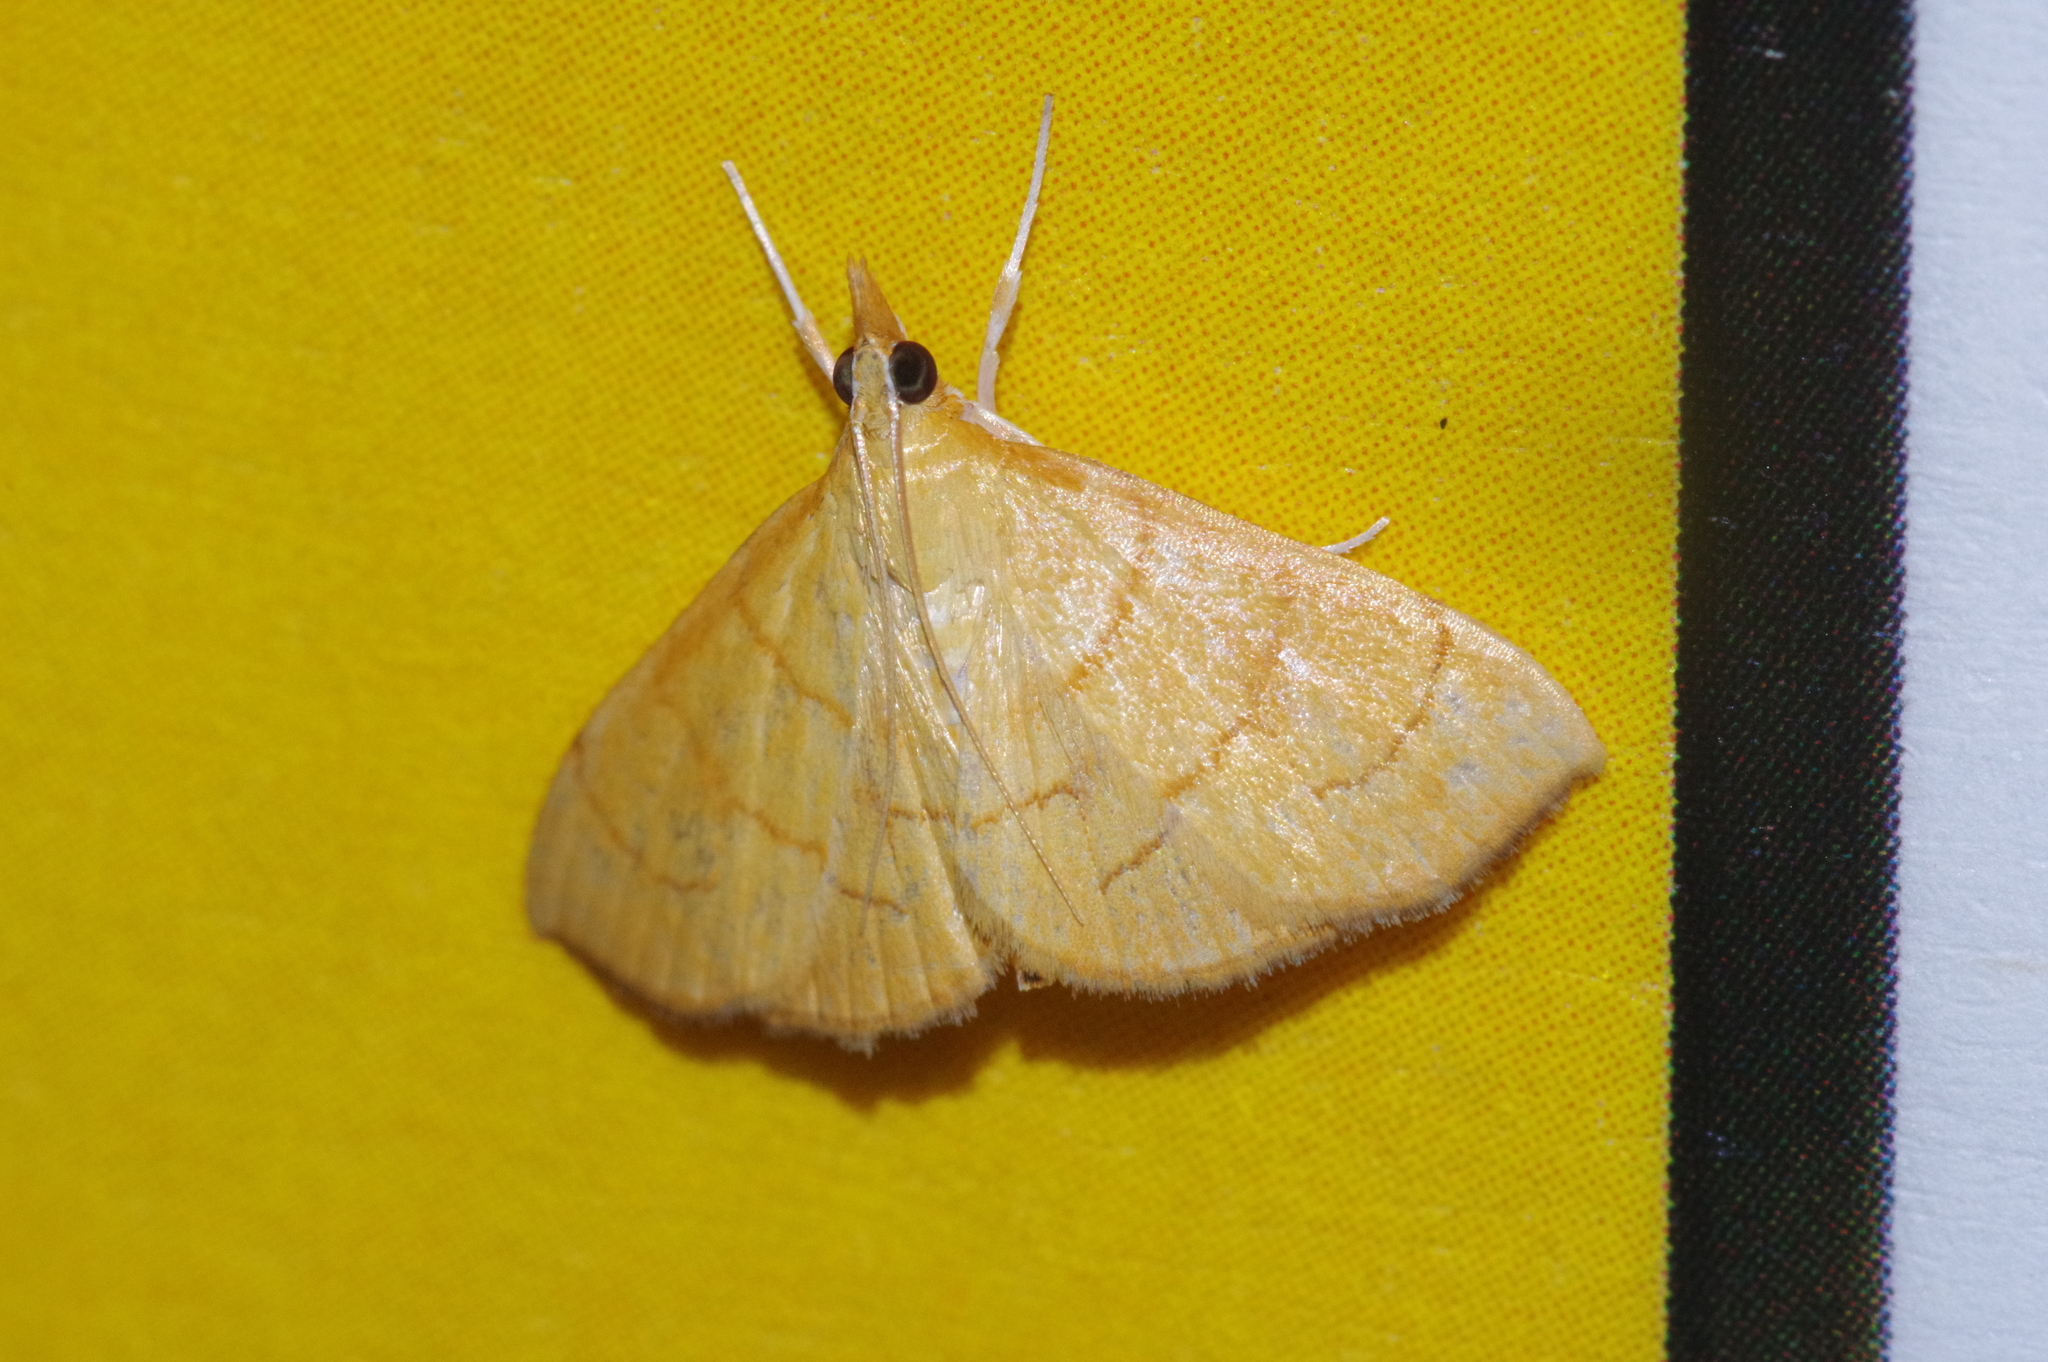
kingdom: Animalia
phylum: Arthropoda
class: Insecta
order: Lepidoptera
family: Crambidae
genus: Ecpyrrhorrhoe
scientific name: Ecpyrrhorrhoe minnehaha
